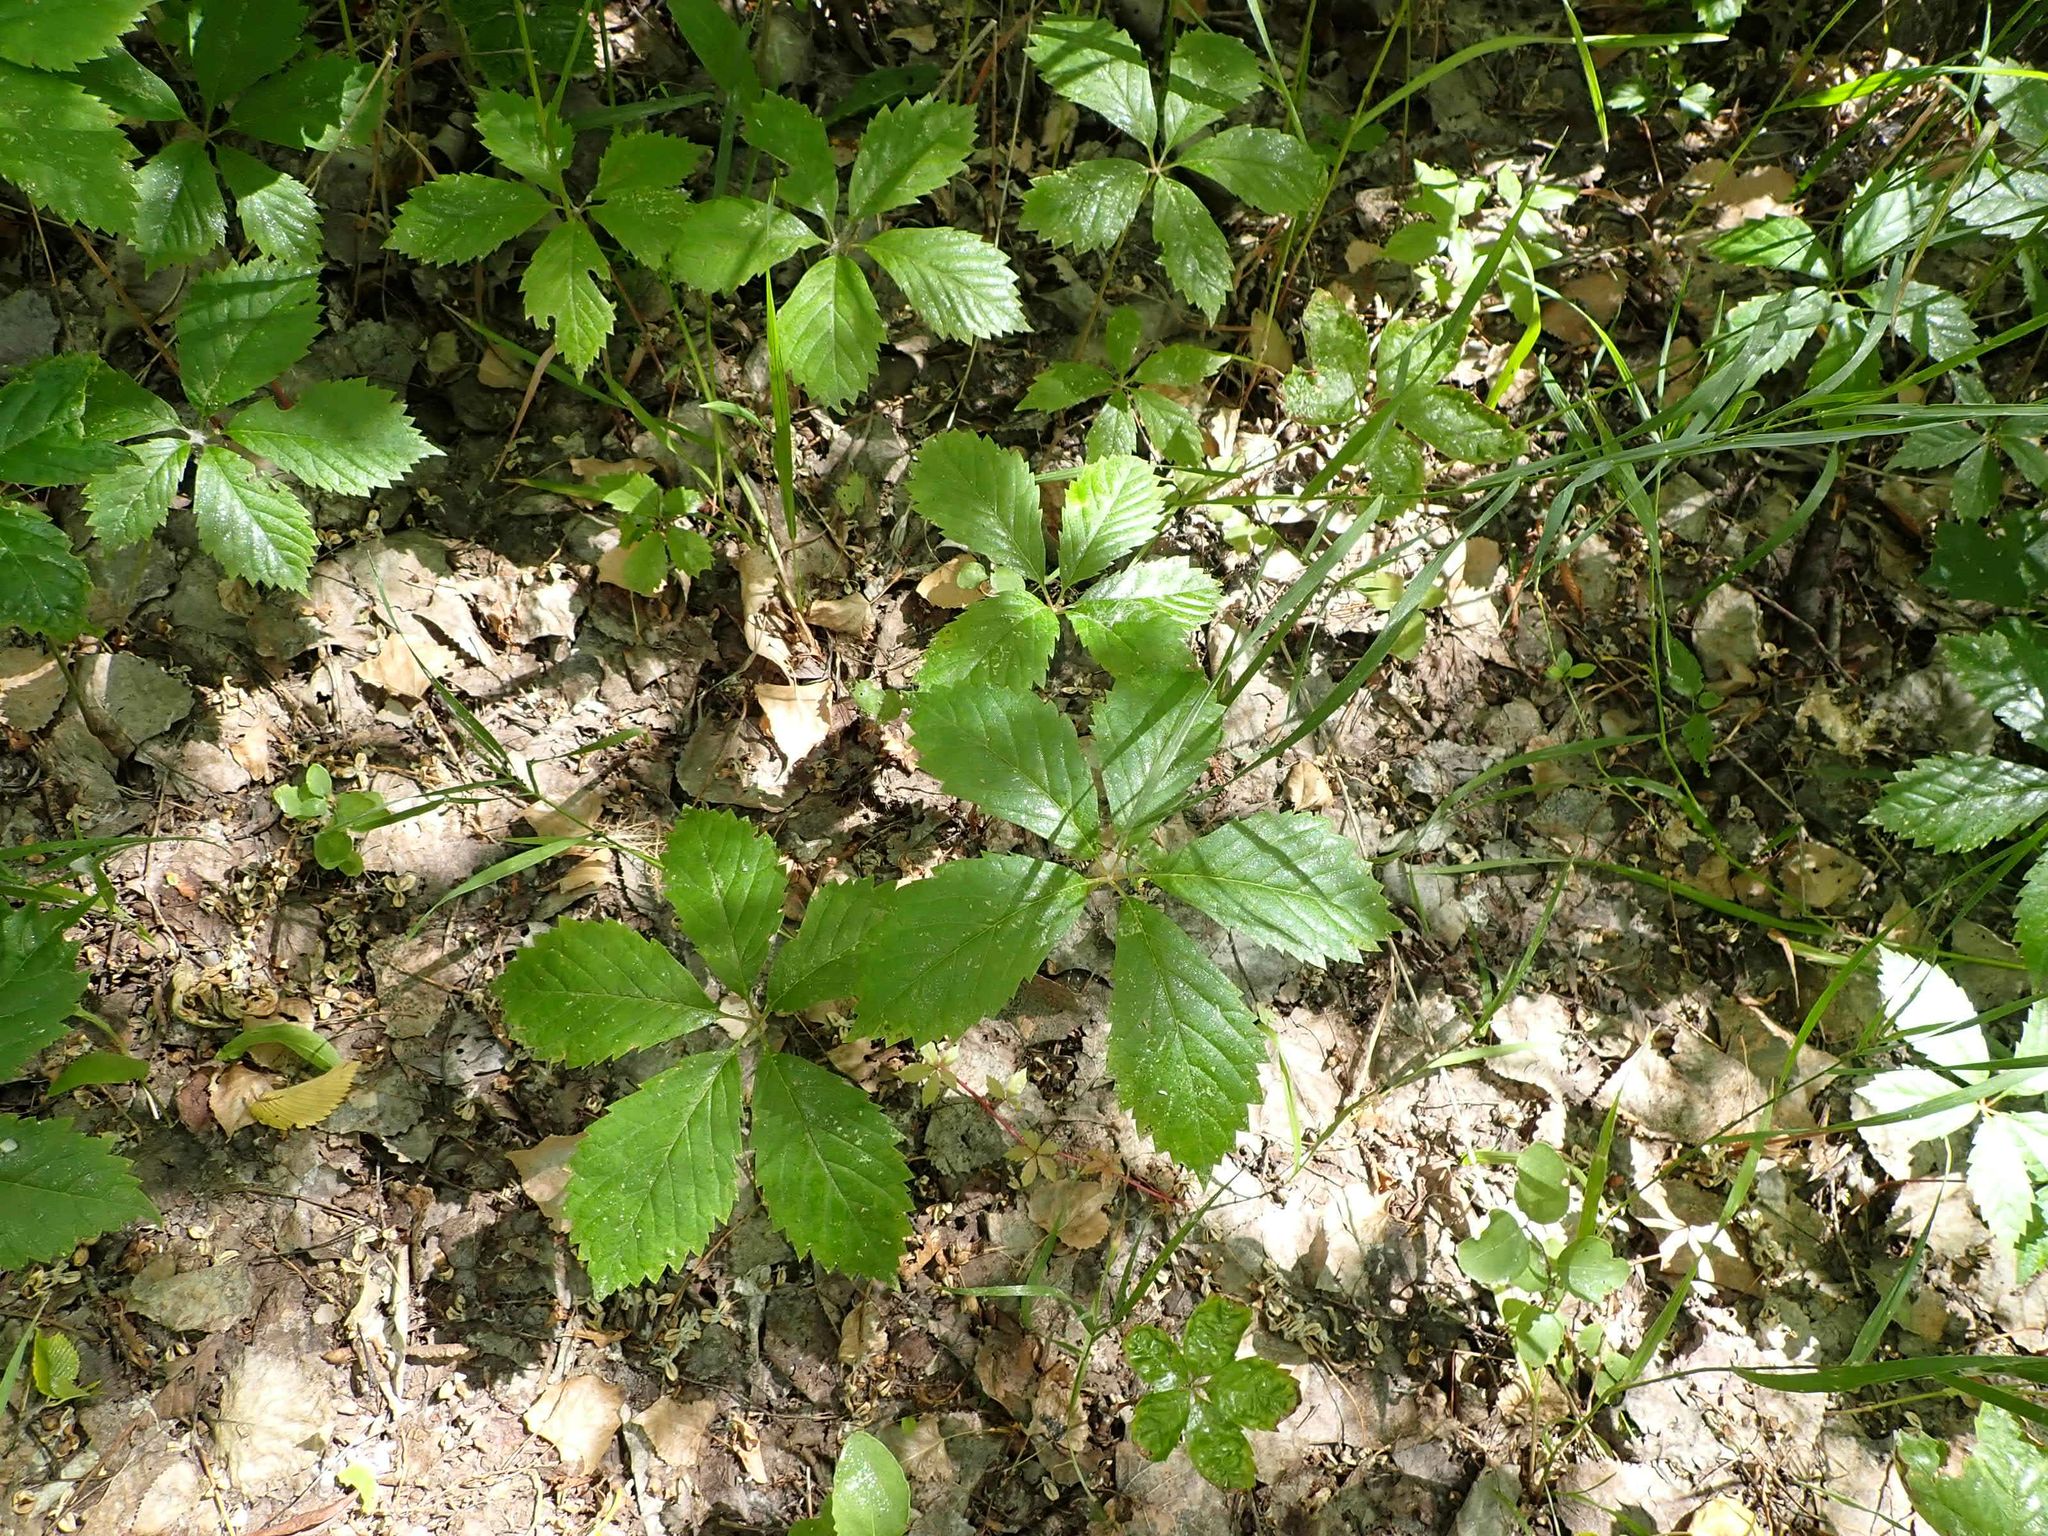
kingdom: Plantae
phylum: Tracheophyta
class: Magnoliopsida
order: Vitales
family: Vitaceae
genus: Parthenocissus
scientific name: Parthenocissus quinquefolia
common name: Virginia-creeper
